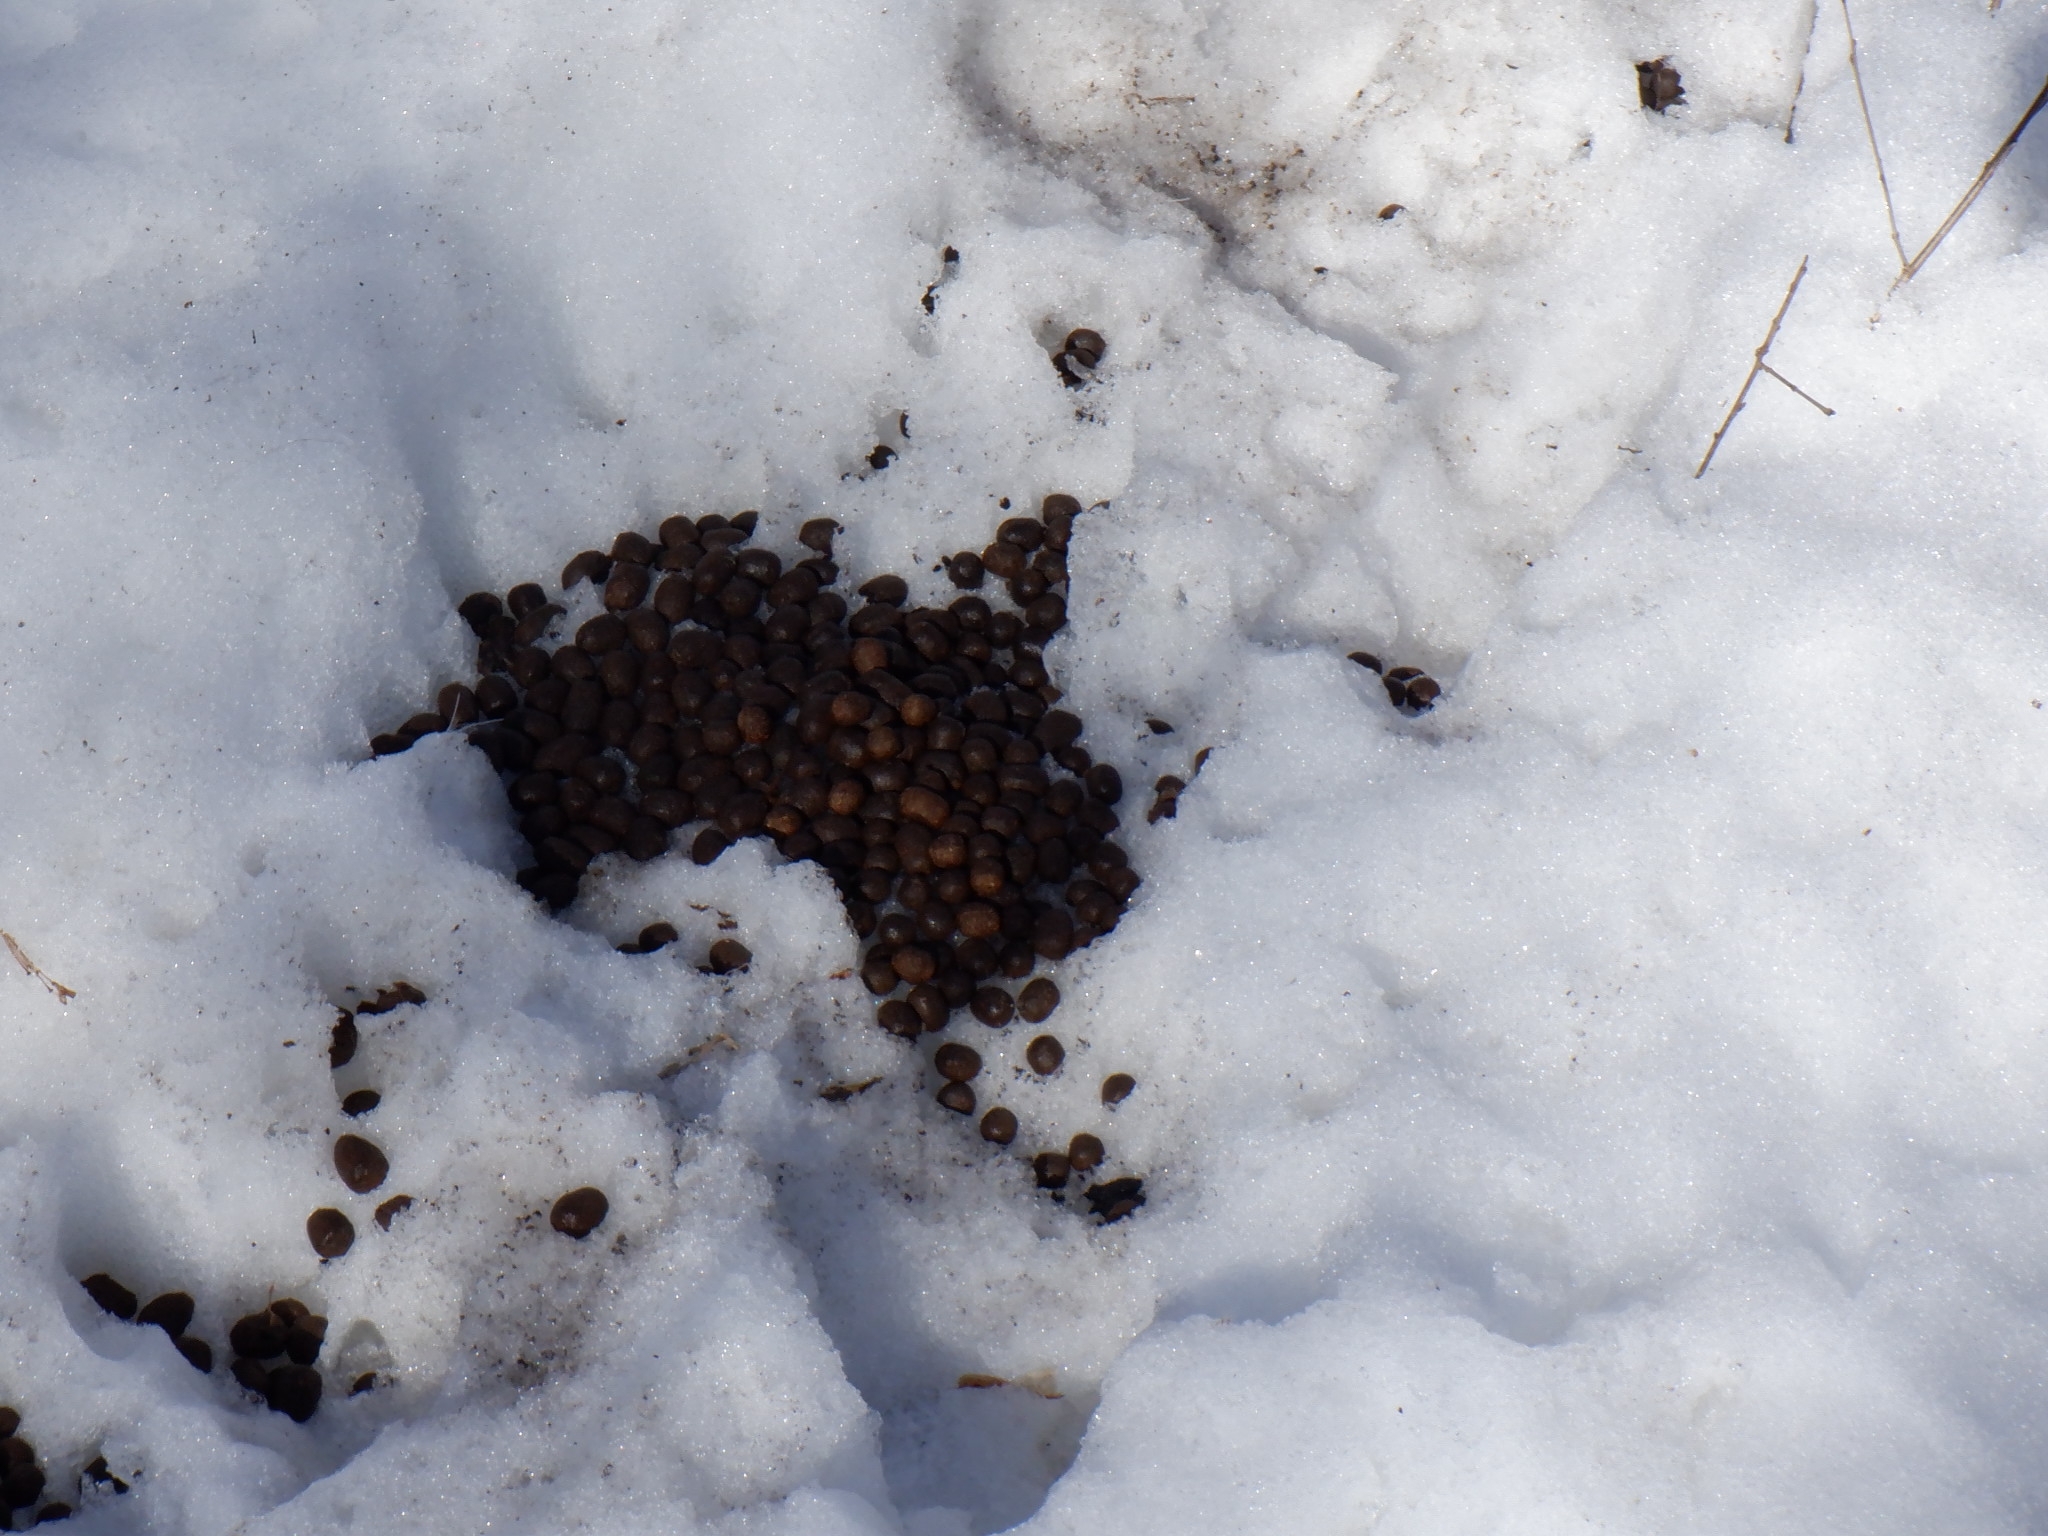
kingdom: Animalia
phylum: Chordata
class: Mammalia
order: Artiodactyla
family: Cervidae
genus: Odocoileus
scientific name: Odocoileus virginianus
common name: White-tailed deer
